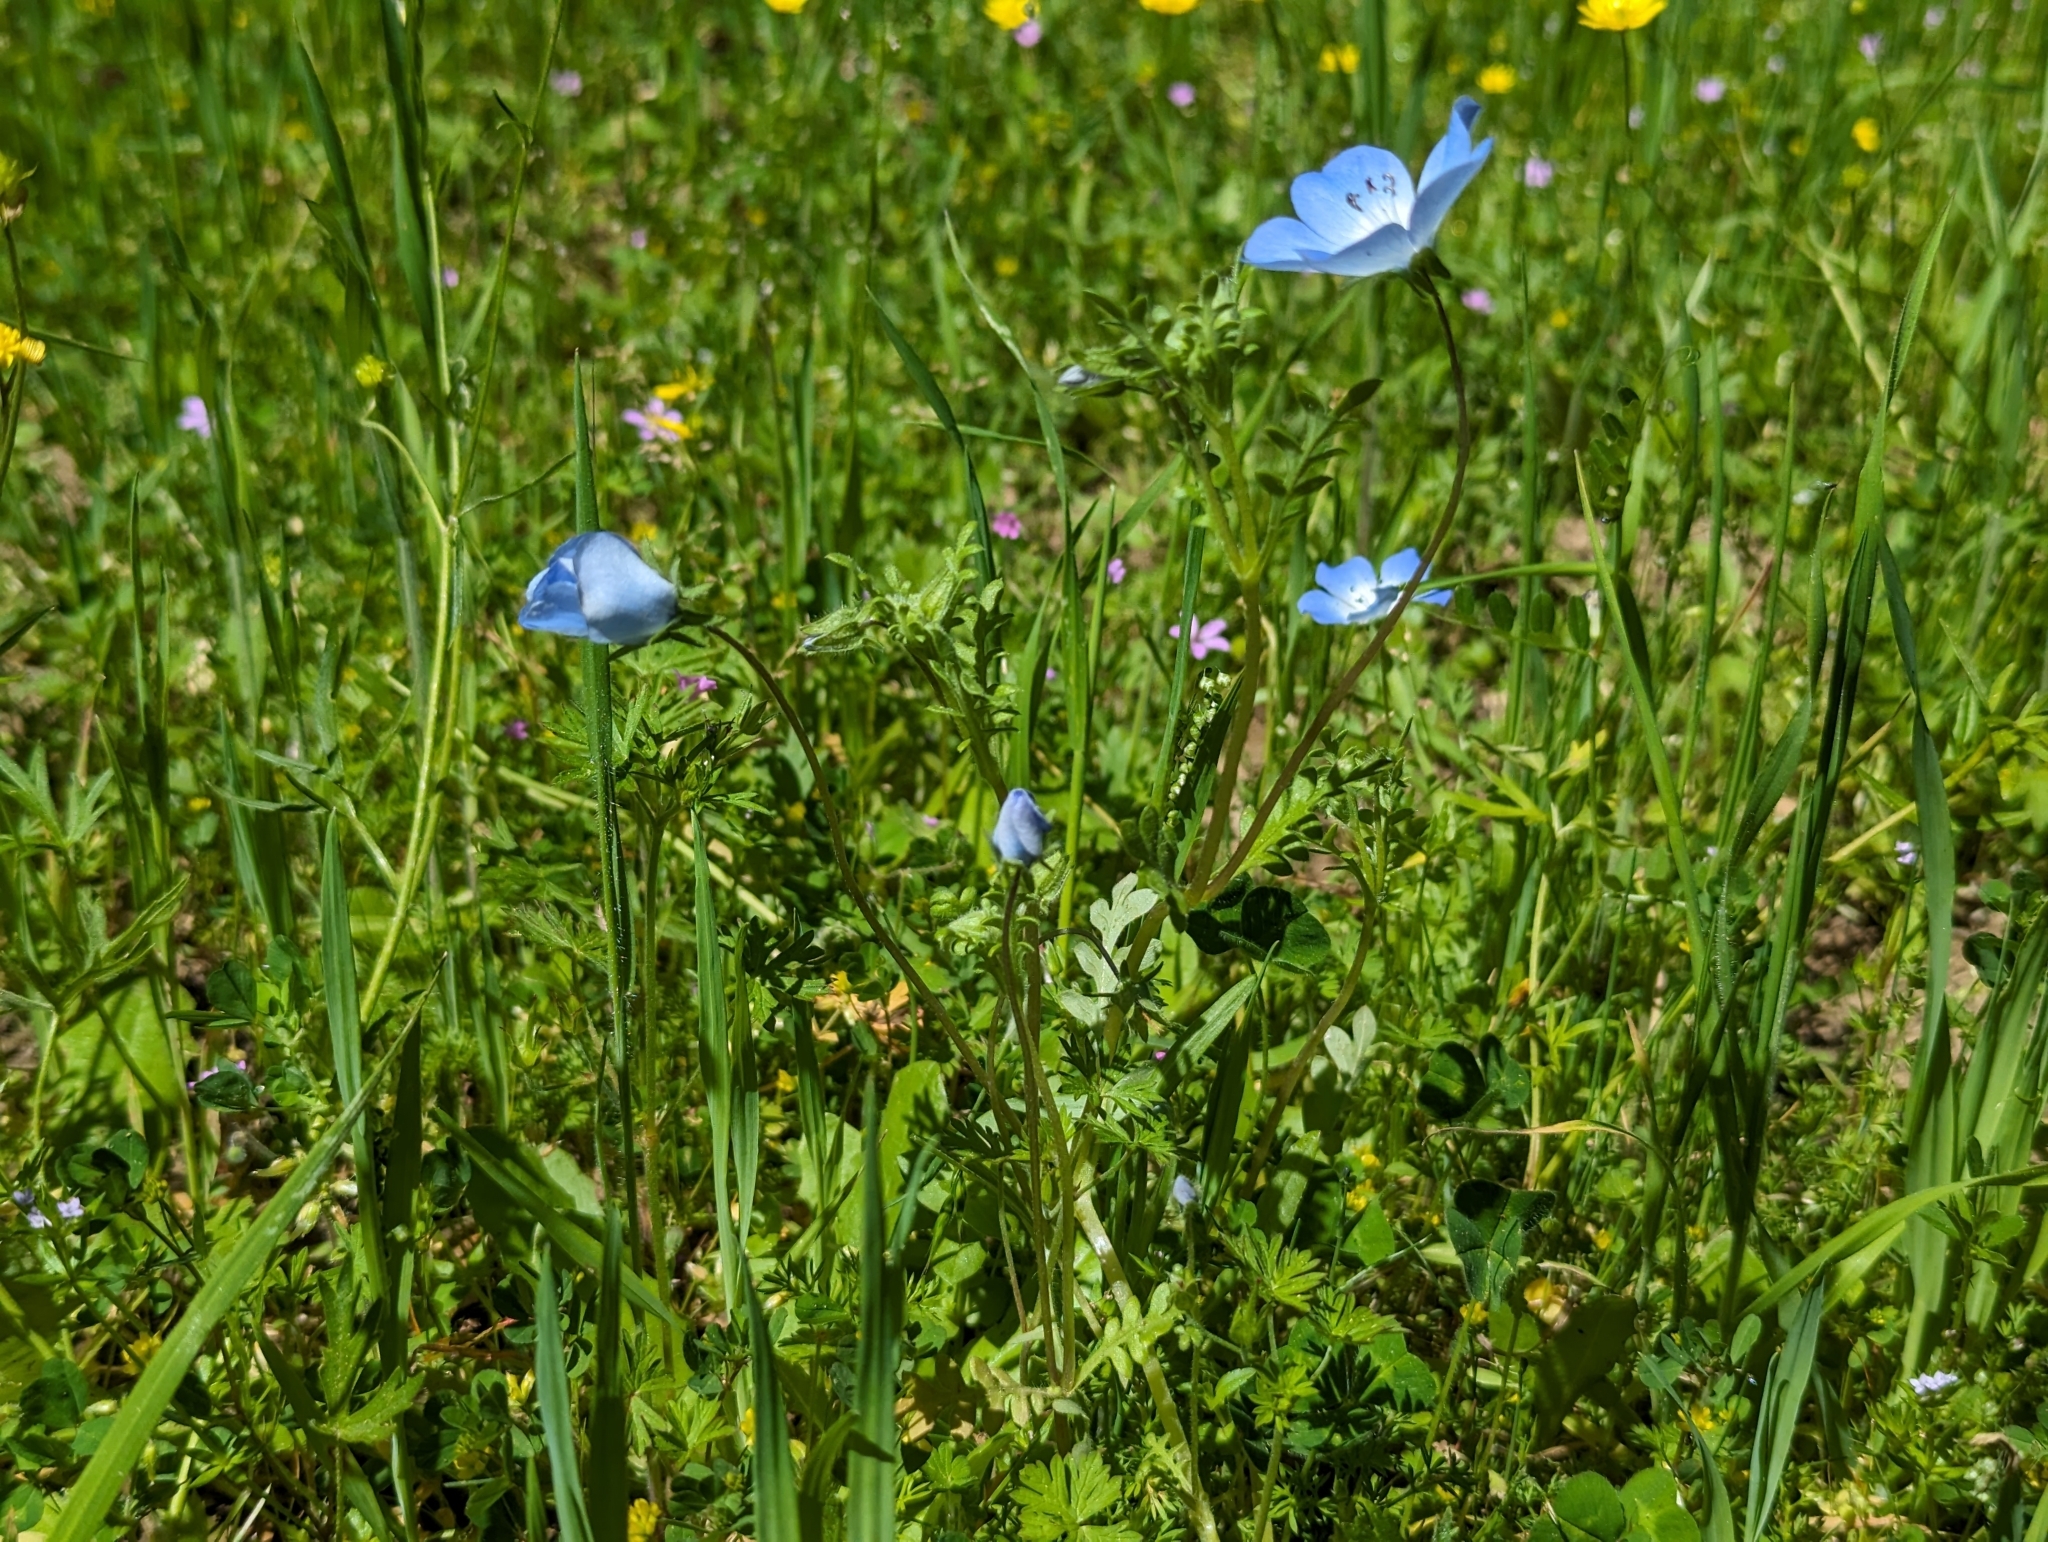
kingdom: Plantae
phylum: Tracheophyta
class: Magnoliopsida
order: Boraginales
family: Hydrophyllaceae
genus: Nemophila
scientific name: Nemophila menziesii
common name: Baby's-blue-eyes
